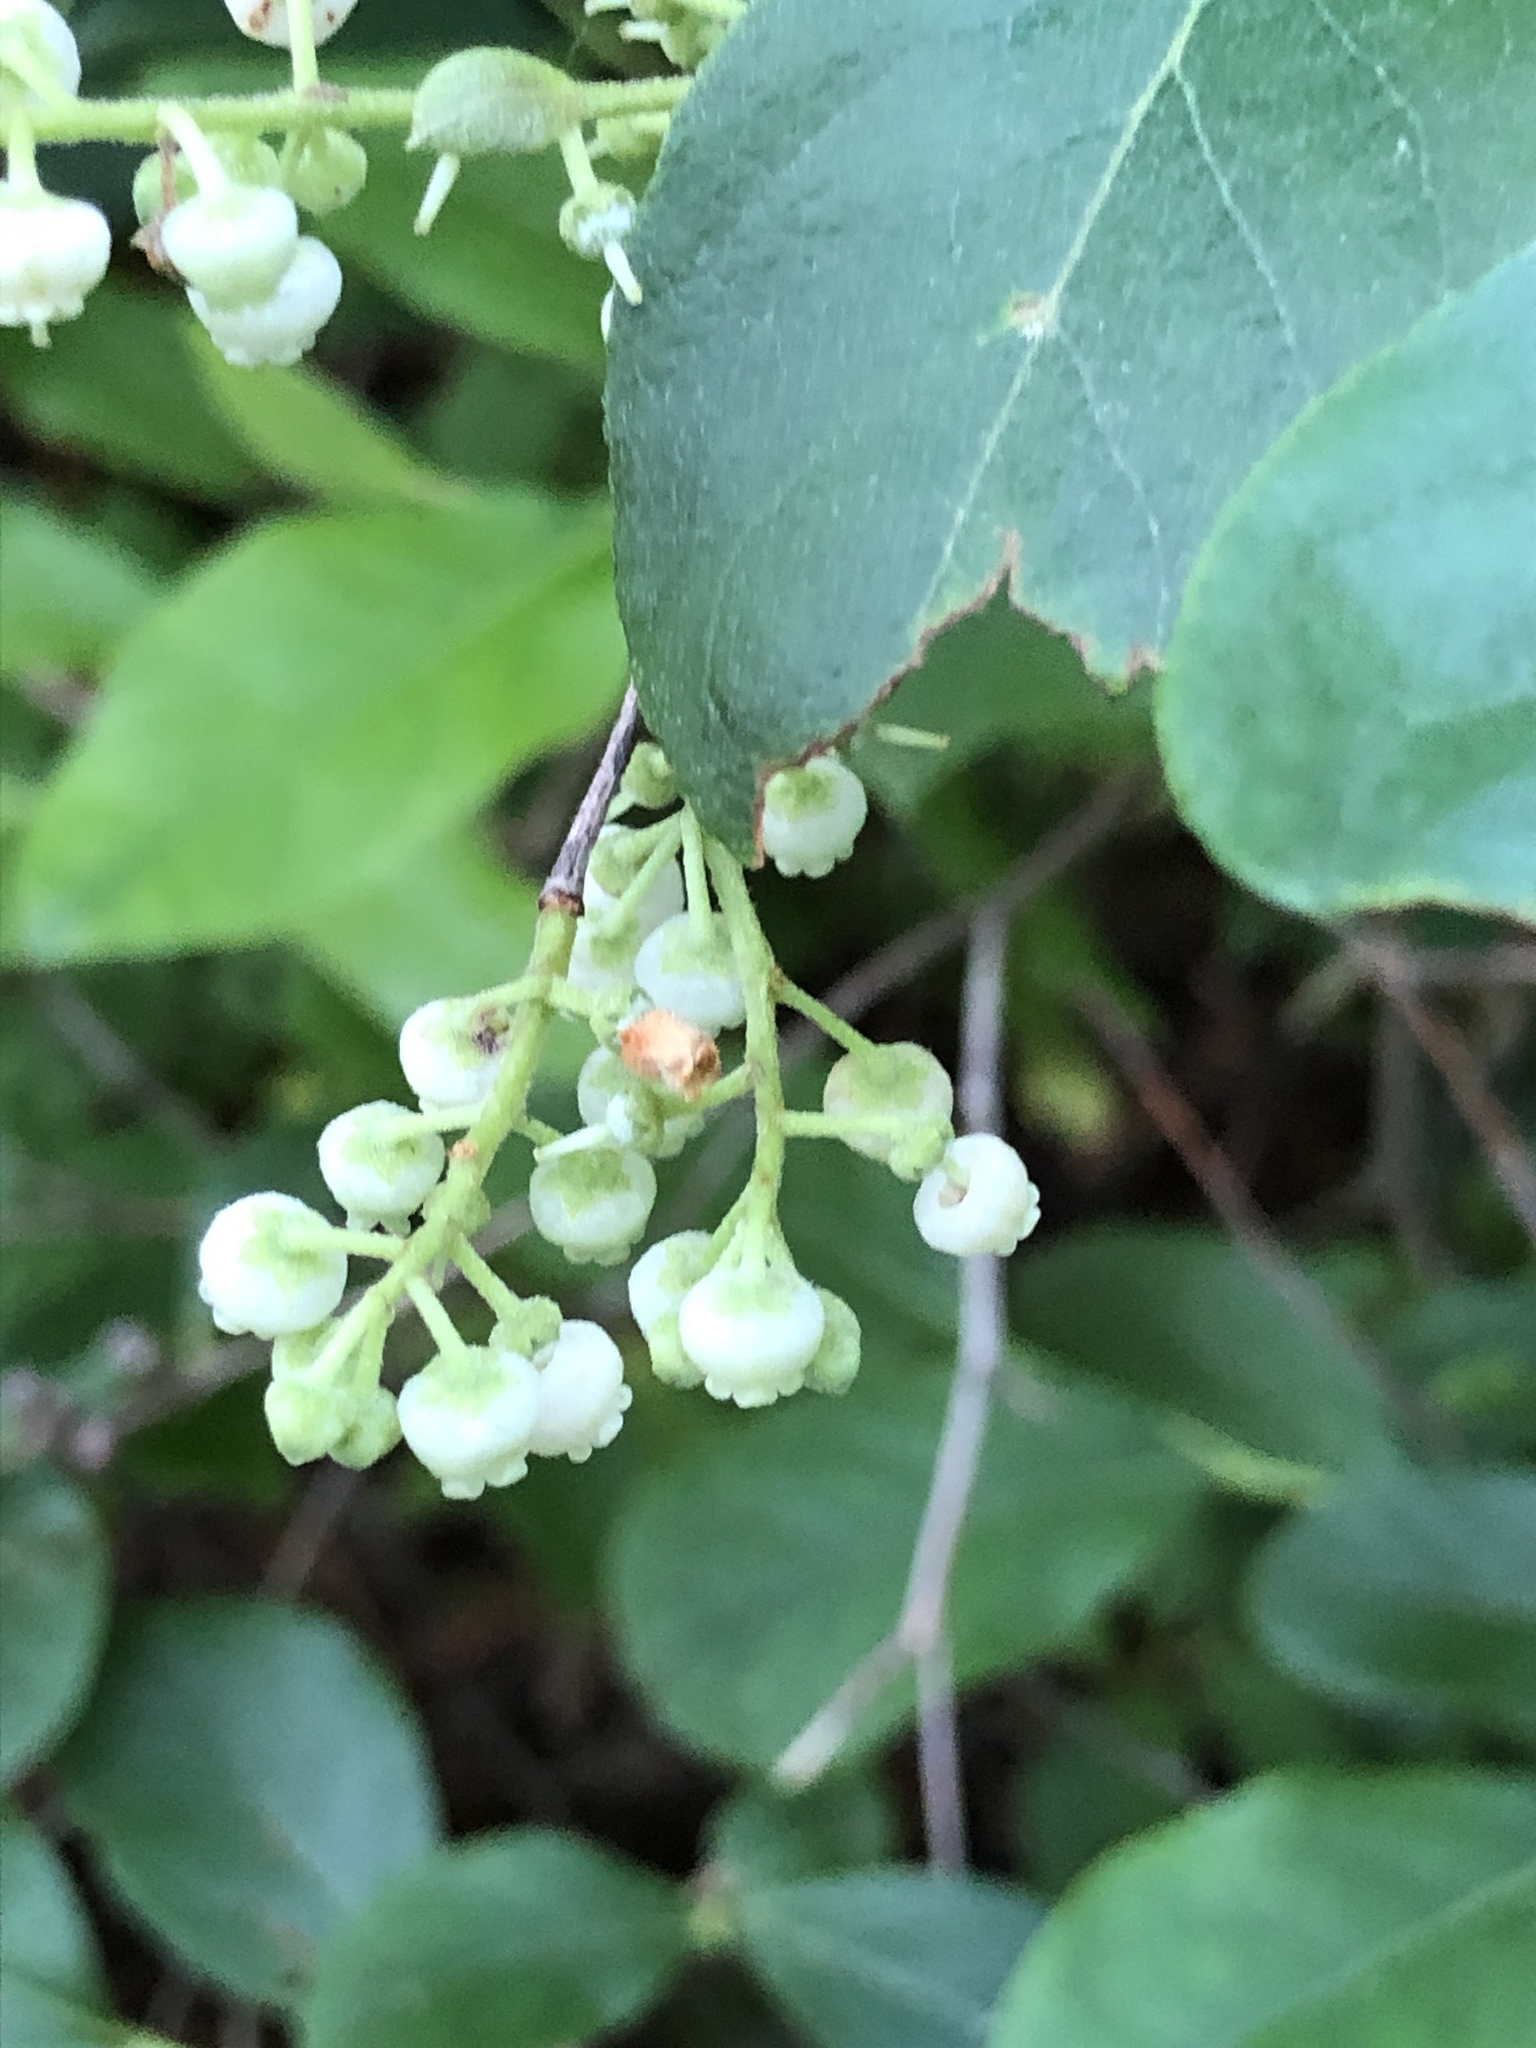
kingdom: Plantae
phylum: Tracheophyta
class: Magnoliopsida
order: Ericales
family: Ericaceae
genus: Lyonia
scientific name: Lyonia ligustrina
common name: Maleberry
